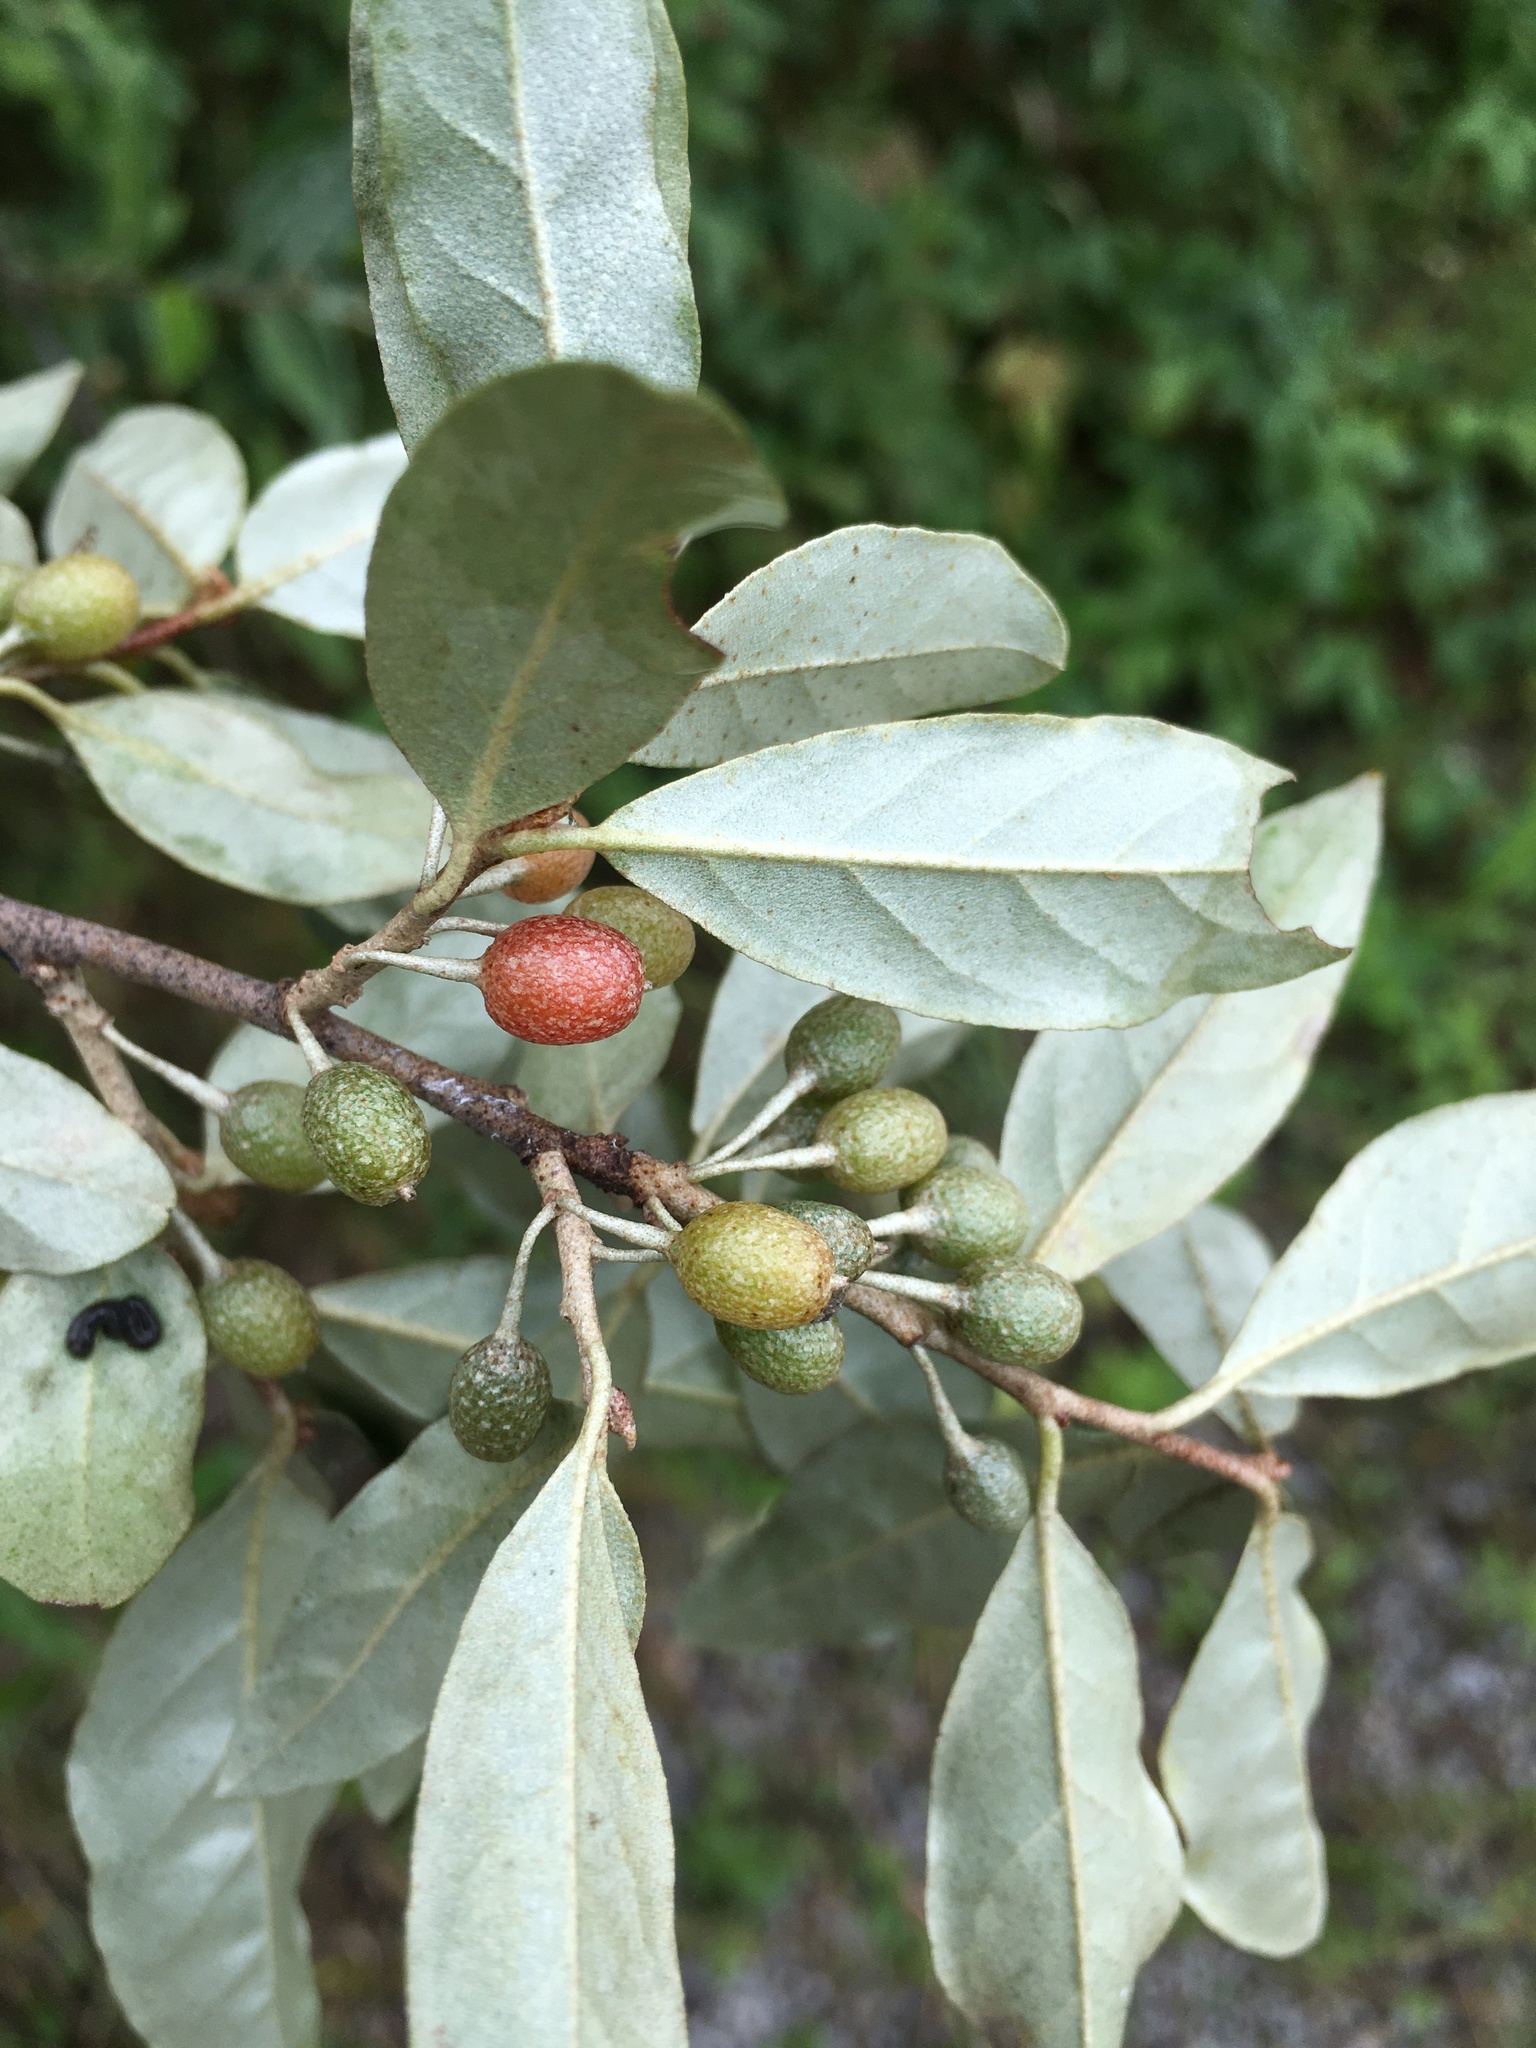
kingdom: Plantae
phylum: Tracheophyta
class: Magnoliopsida
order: Rosales
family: Elaeagnaceae
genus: Elaeagnus
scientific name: Elaeagnus umbellata
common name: Autumn olive
